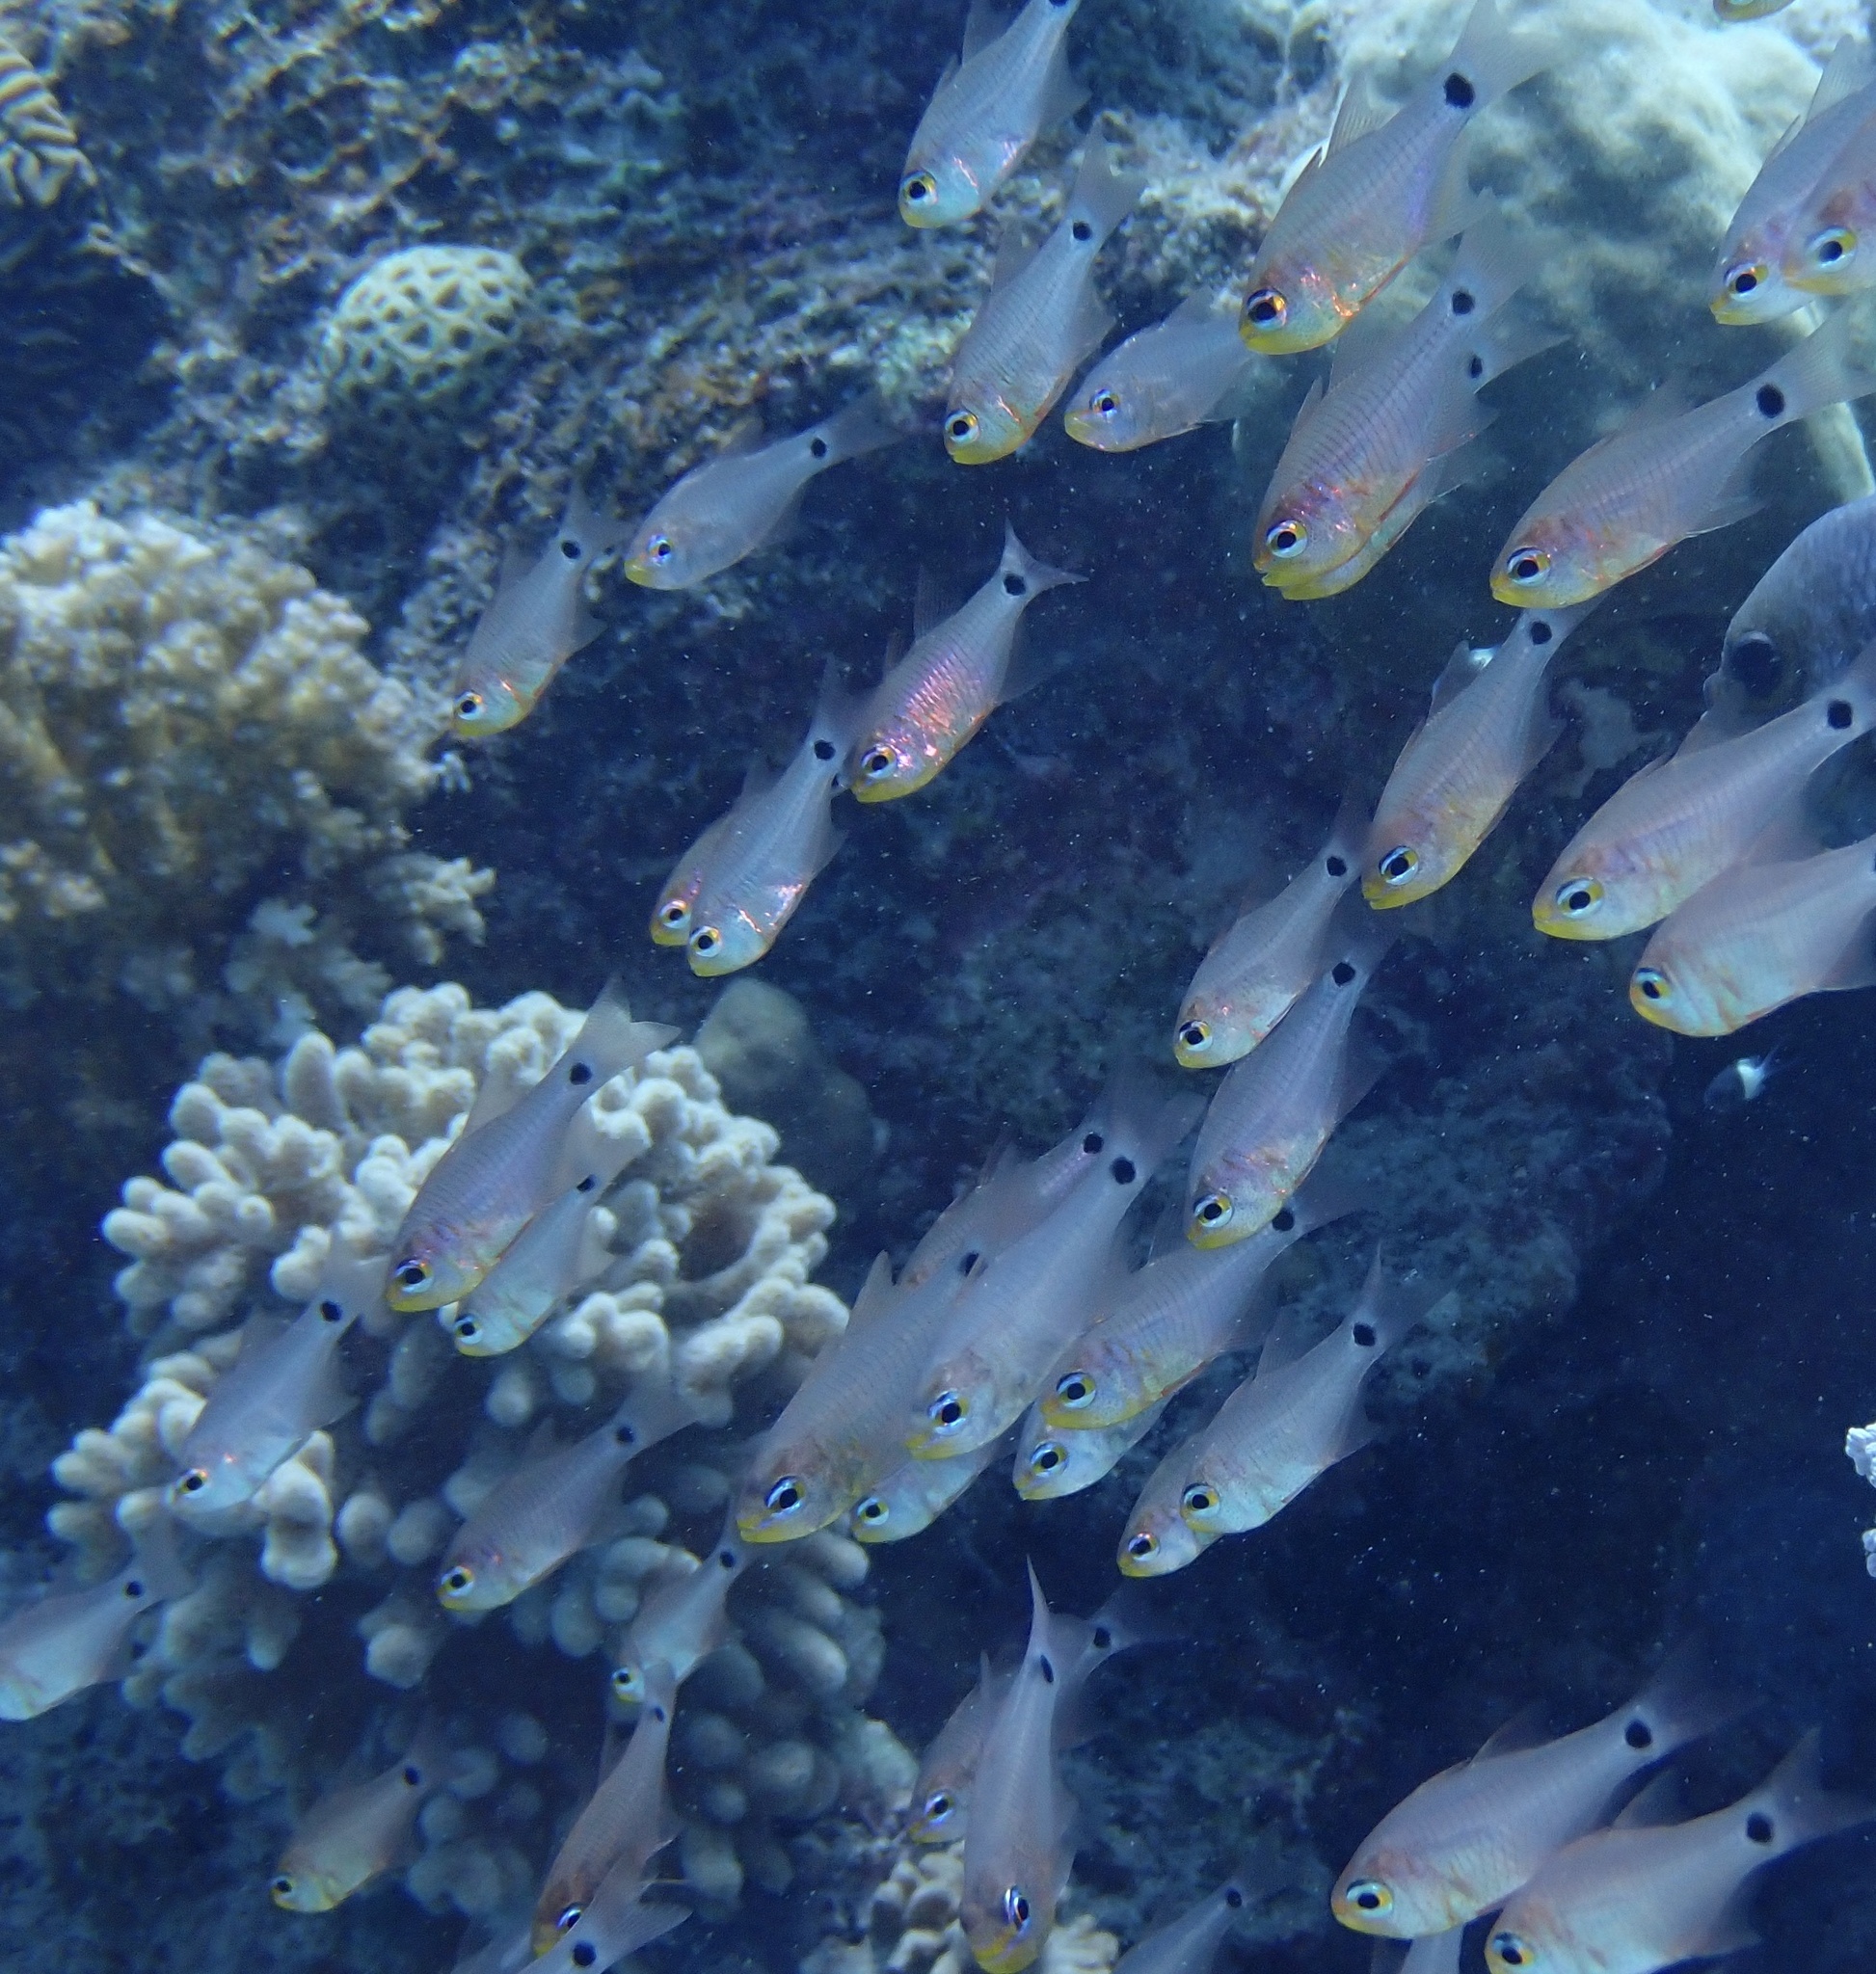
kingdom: Animalia
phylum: Chordata
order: Perciformes
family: Apogonidae
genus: Taeniamia
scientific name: Taeniamia fucata
